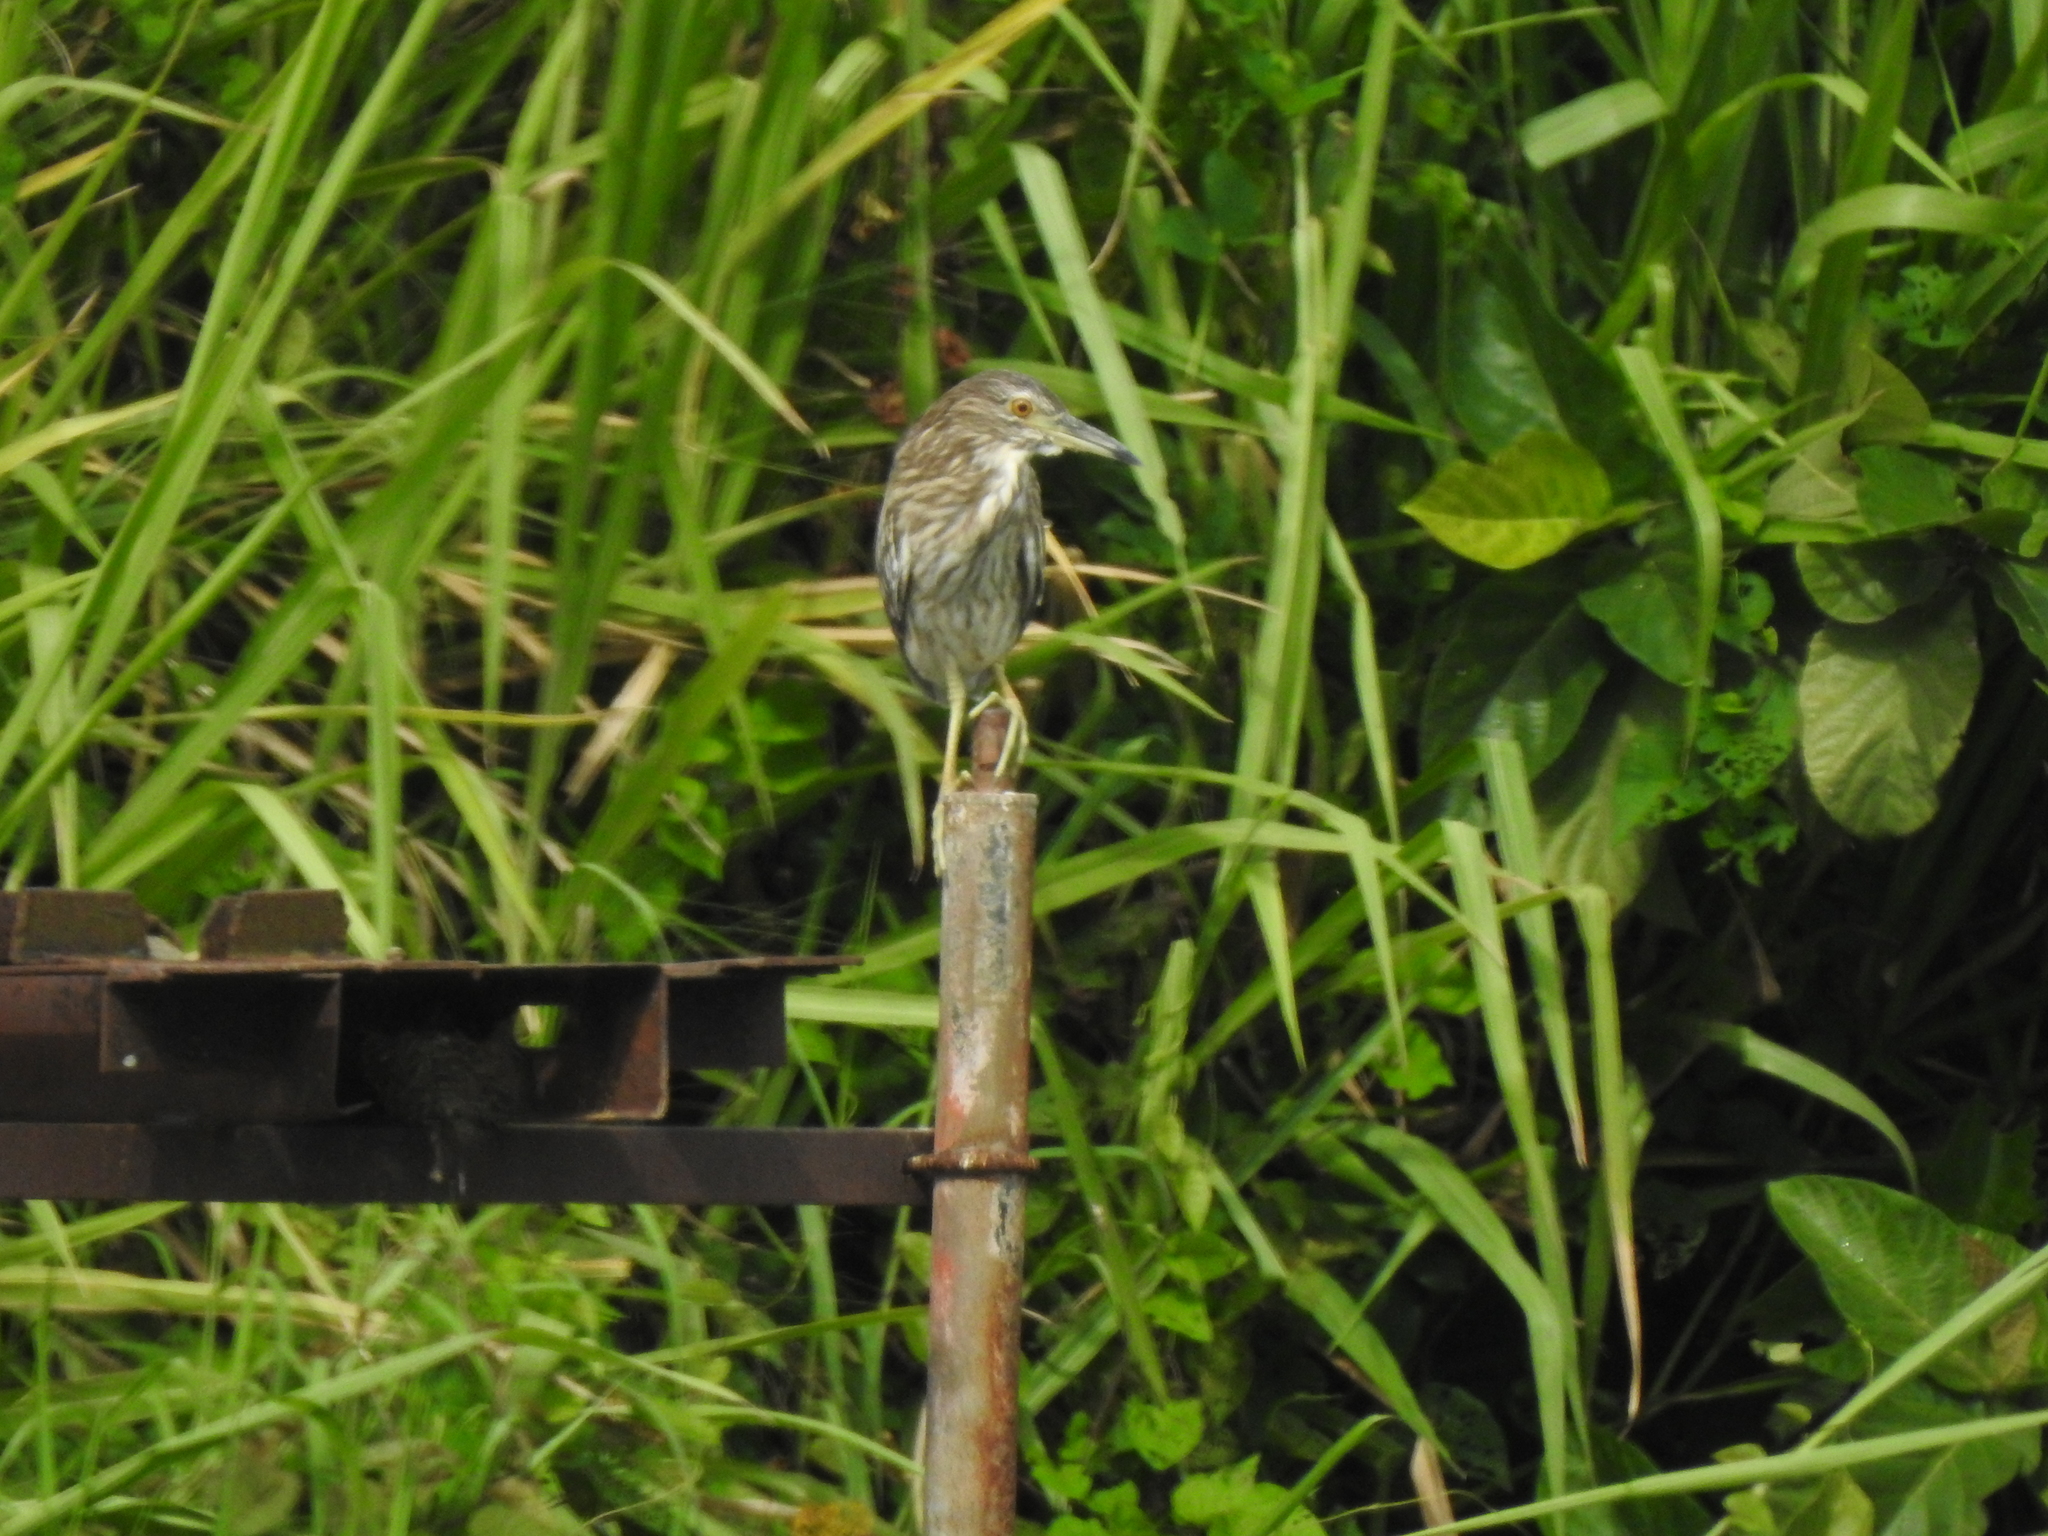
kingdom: Animalia
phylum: Chordata
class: Aves
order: Pelecaniformes
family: Ardeidae
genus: Nycticorax
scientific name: Nycticorax nycticorax
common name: Black-crowned night heron
